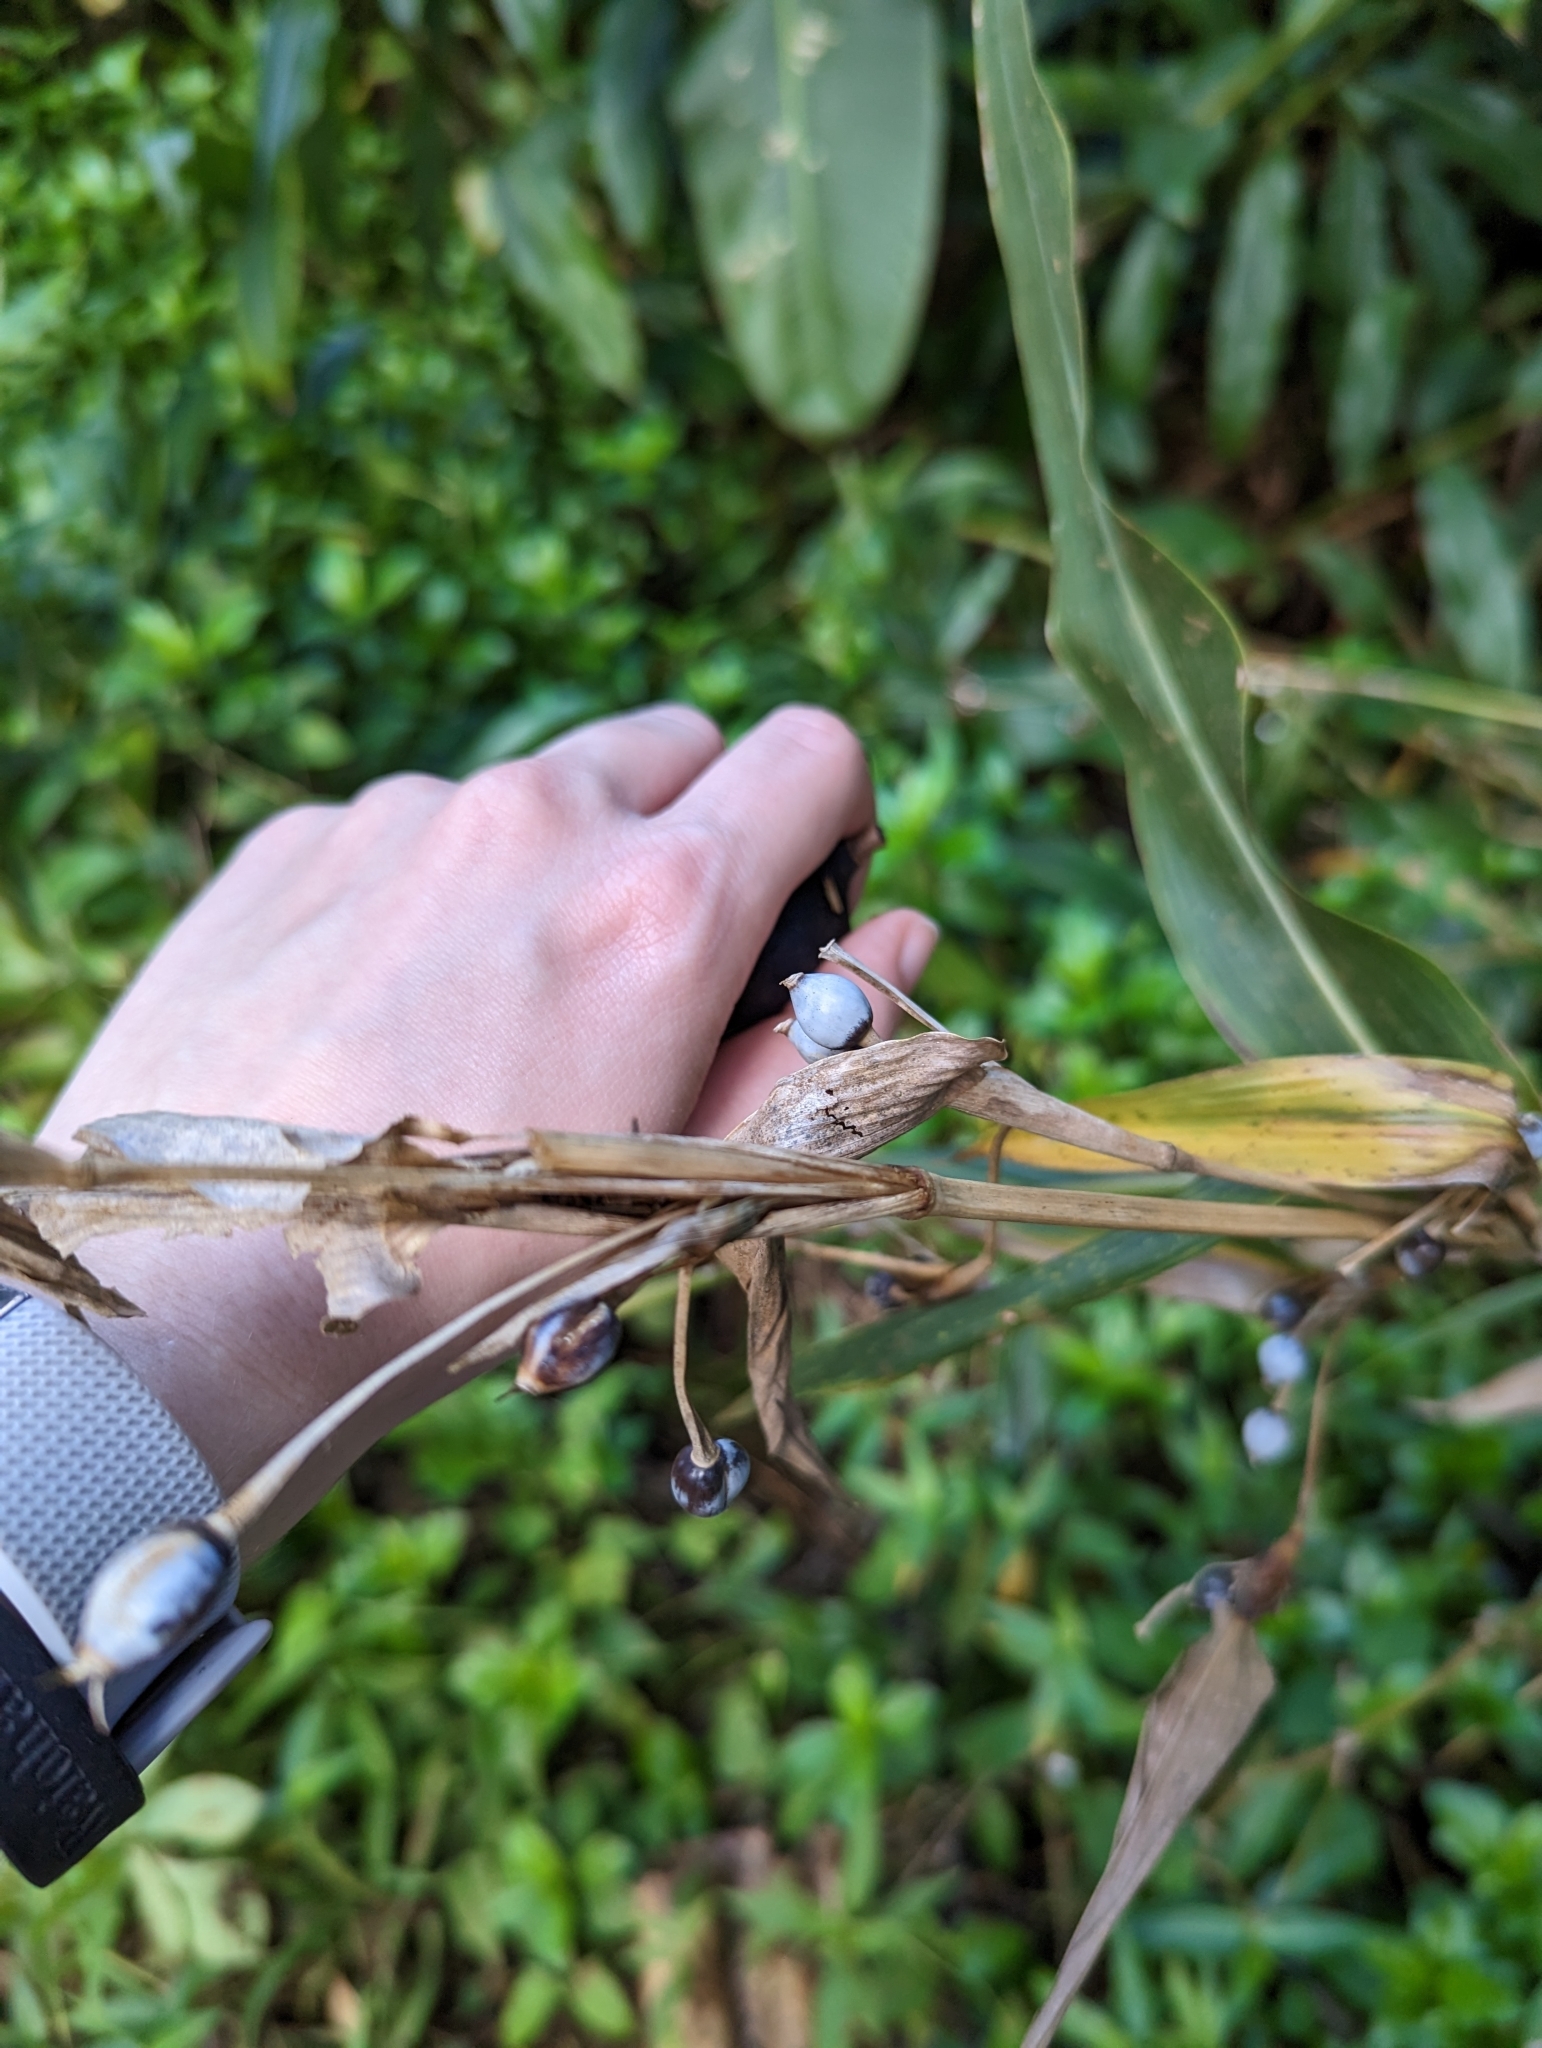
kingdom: Plantae
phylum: Tracheophyta
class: Liliopsida
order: Poales
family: Poaceae
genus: Coix
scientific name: Coix lacryma-jobi
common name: Job's tears
